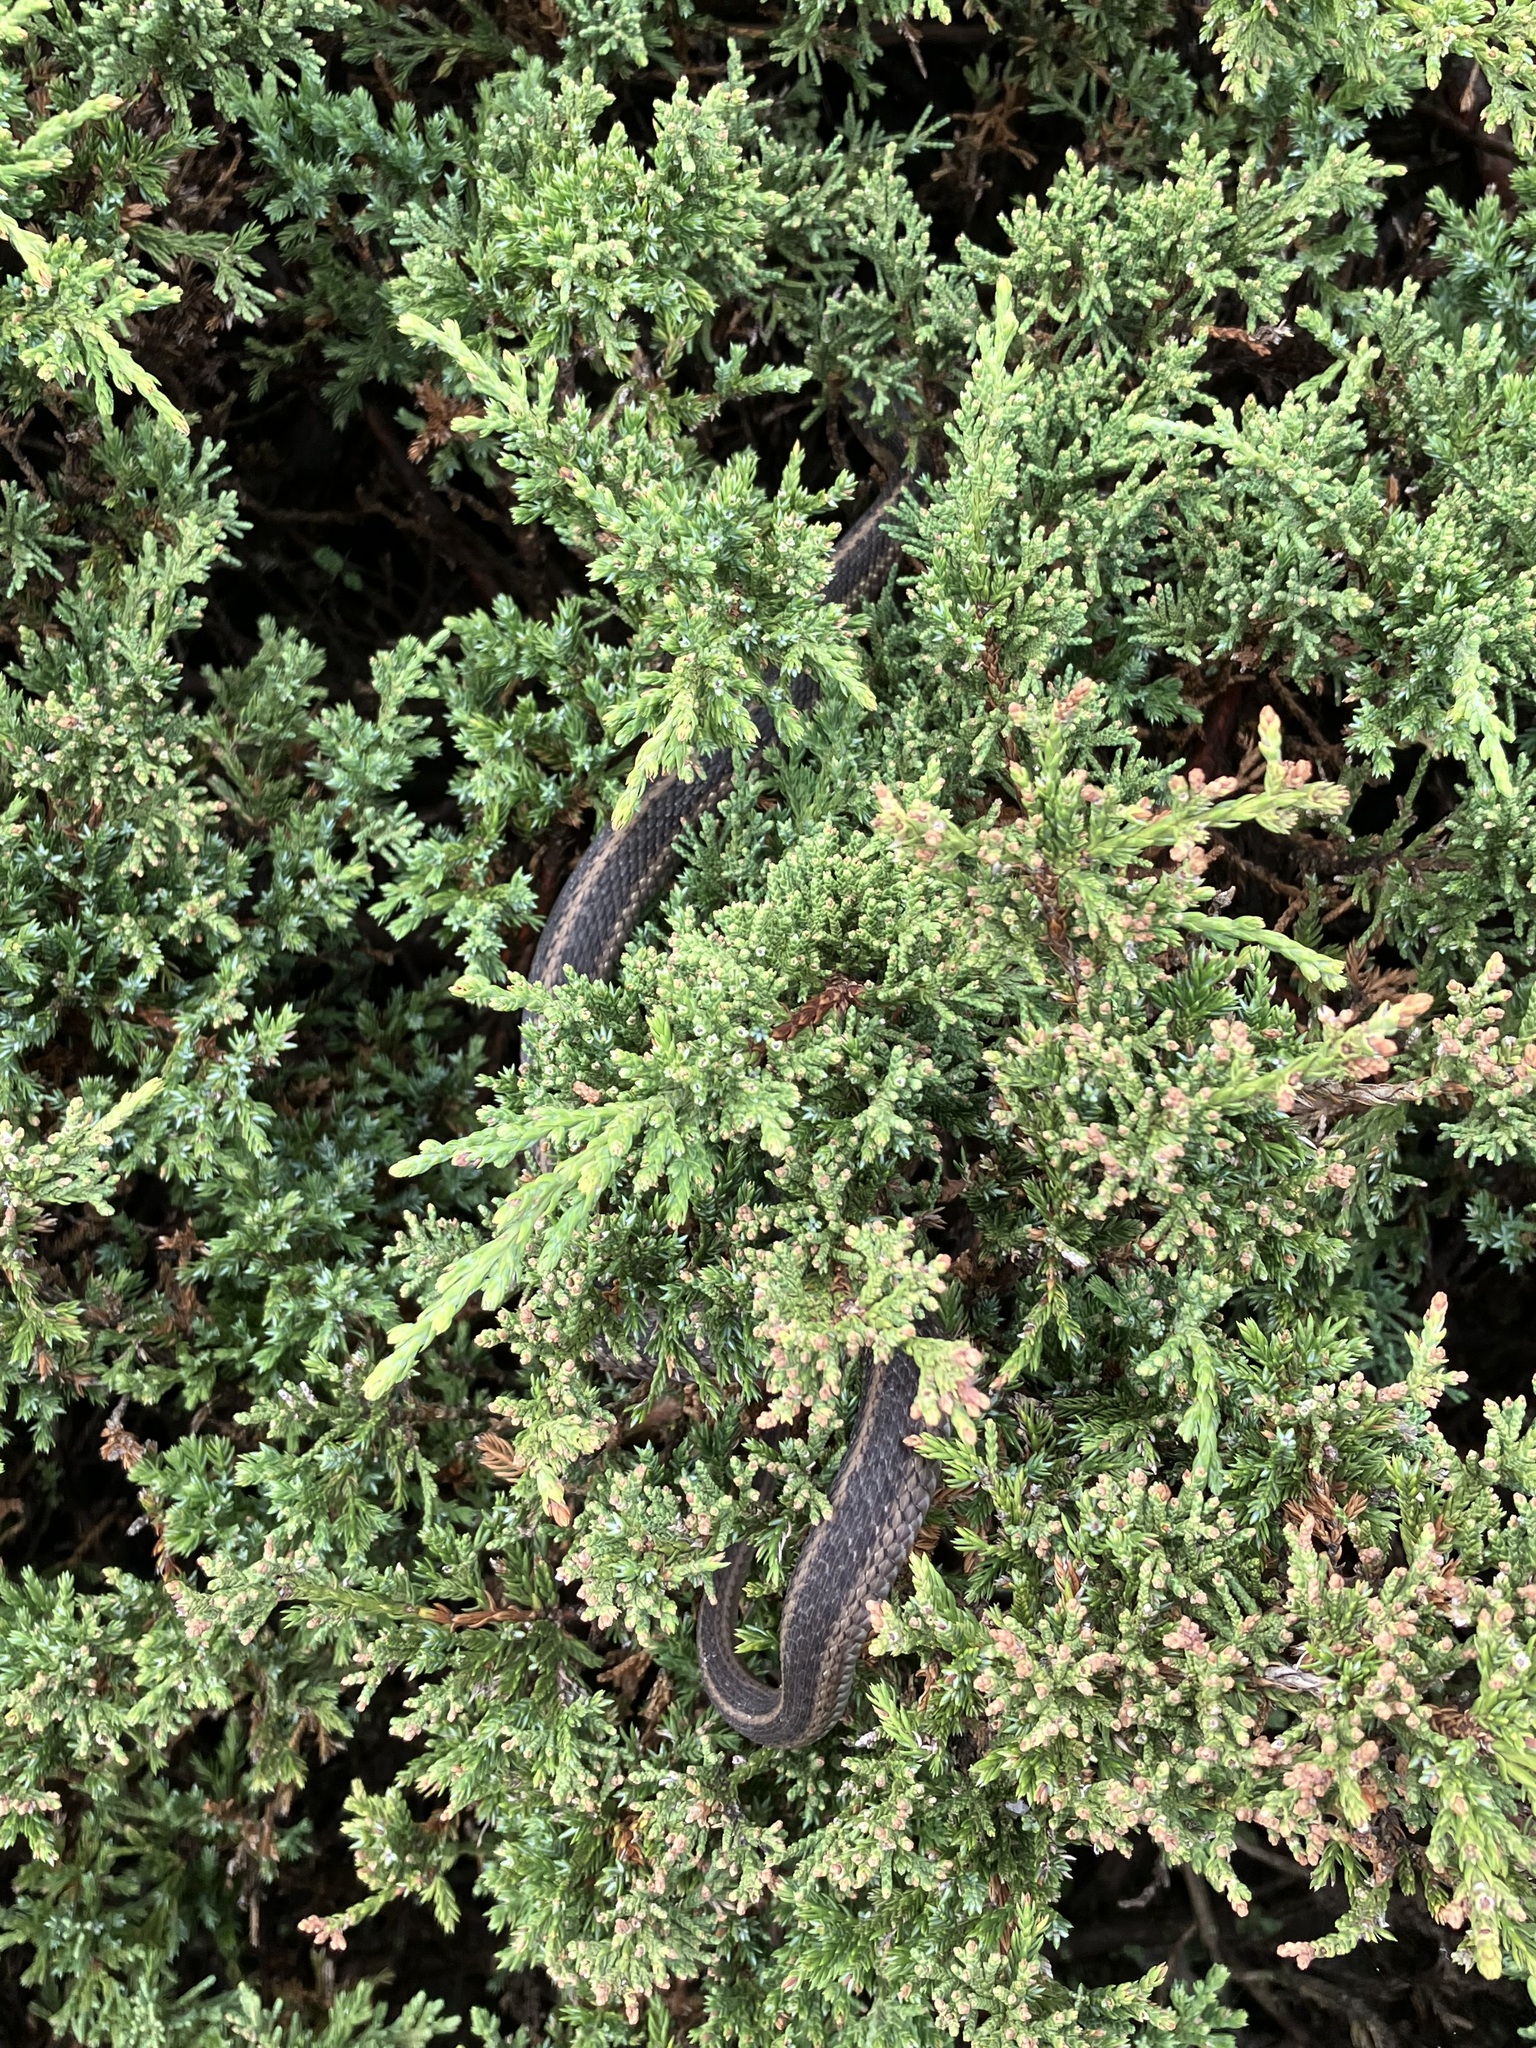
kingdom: Animalia
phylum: Chordata
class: Squamata
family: Colubridae
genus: Thamnophis
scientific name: Thamnophis sirtalis
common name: Common garter snake
